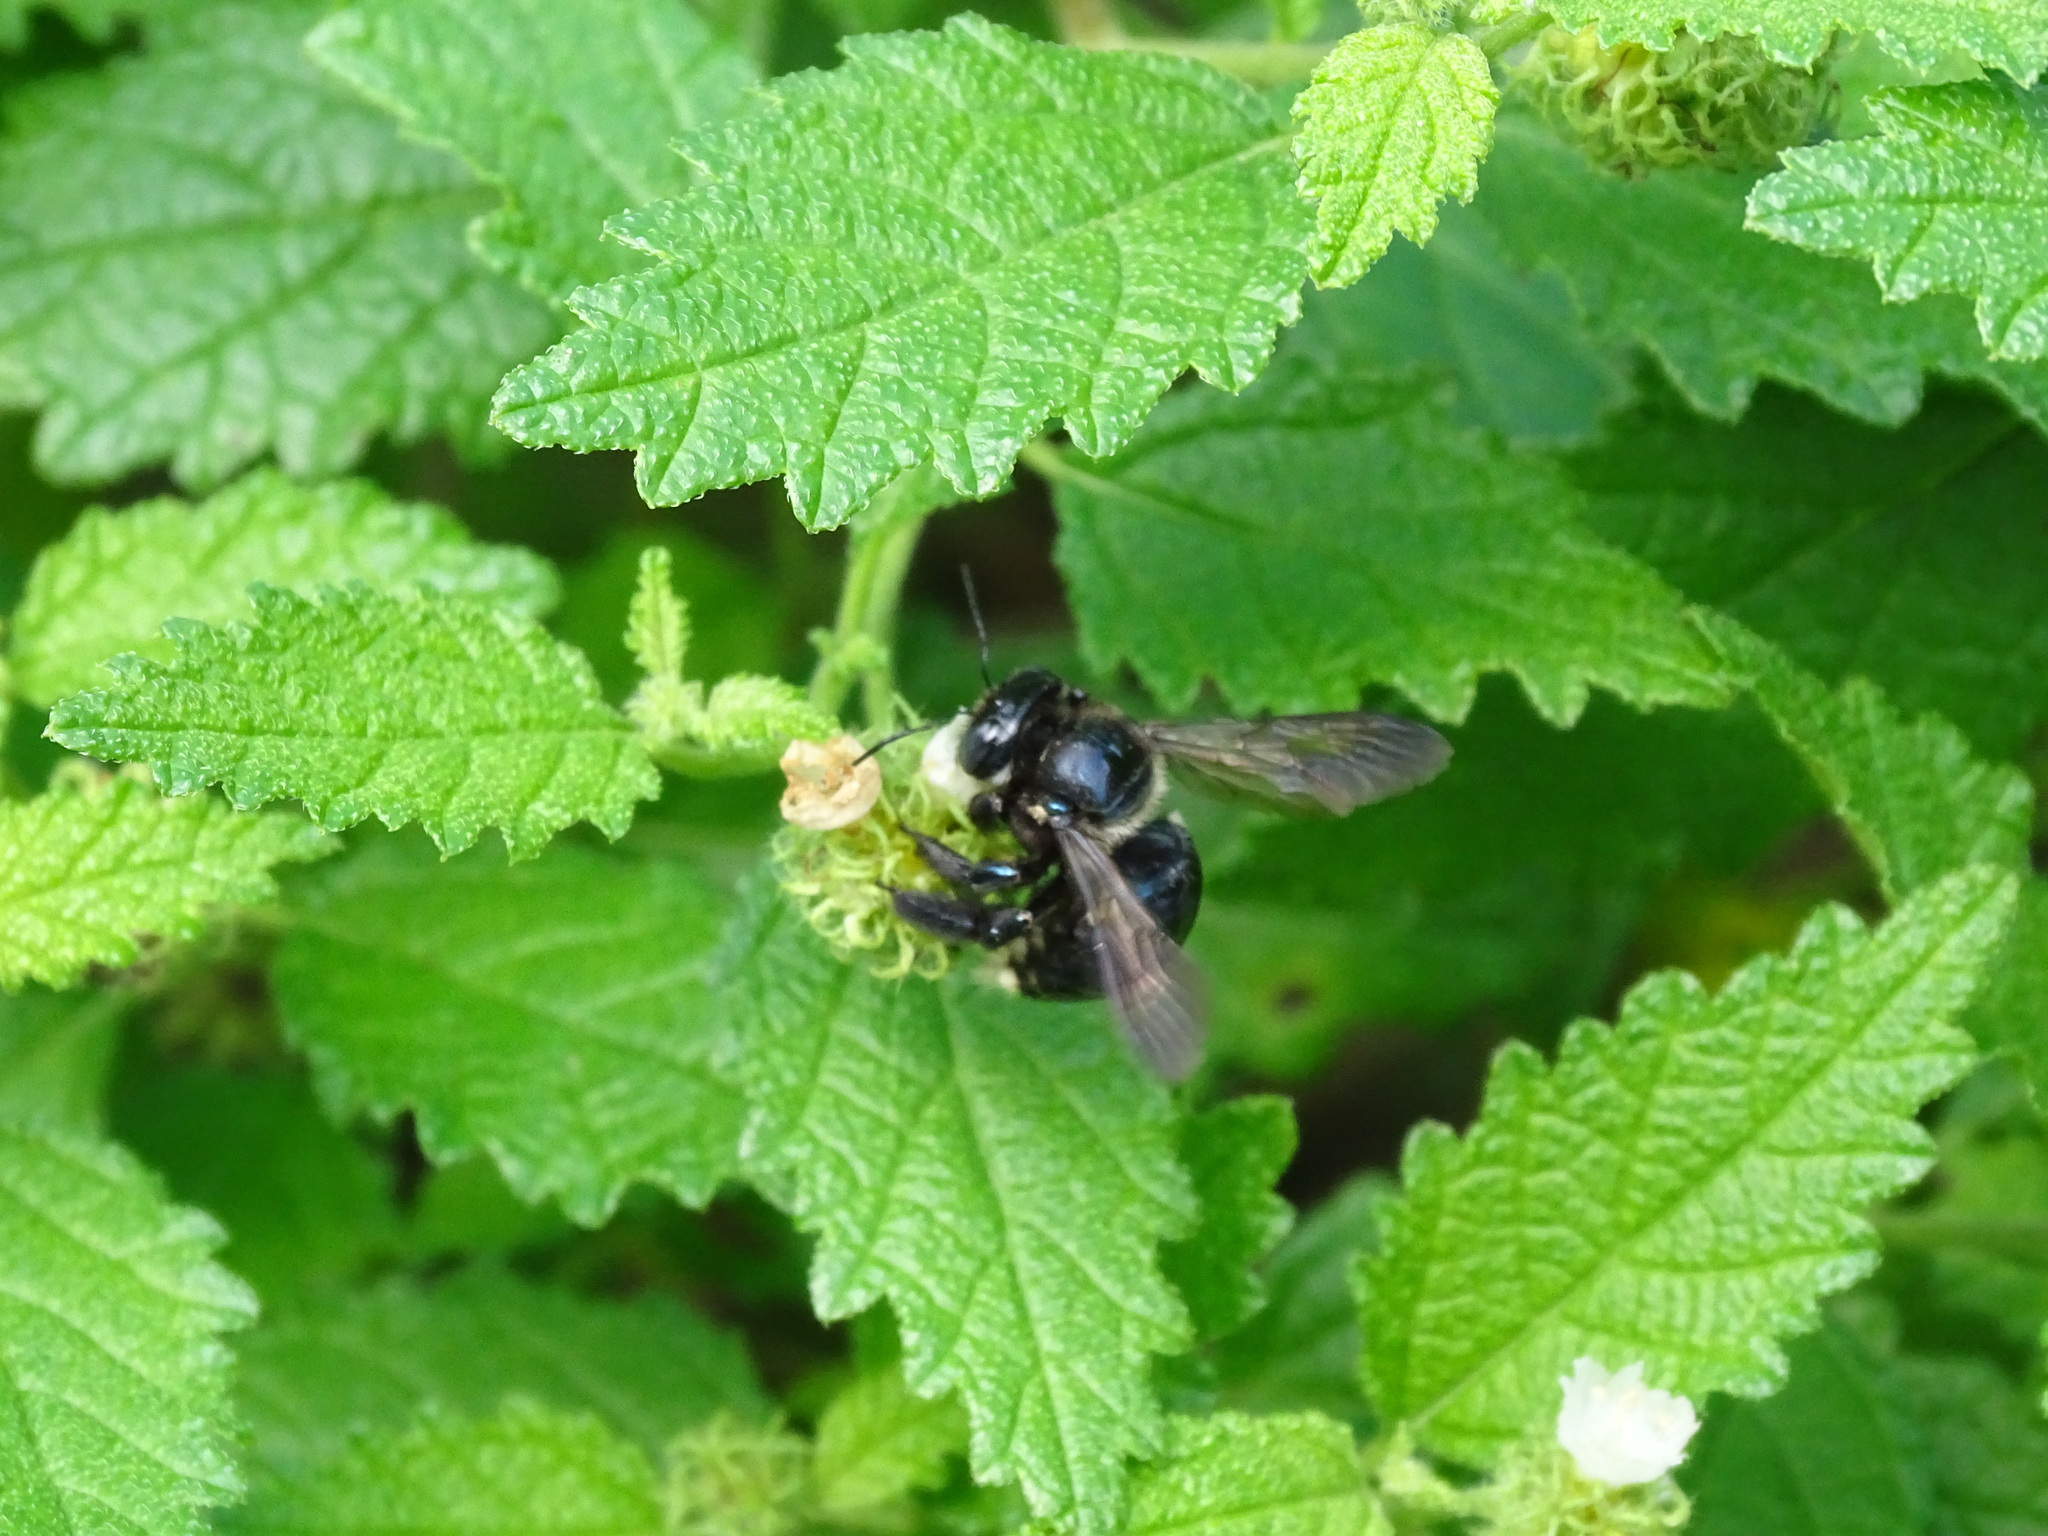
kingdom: Animalia
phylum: Arthropoda
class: Insecta
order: Hymenoptera
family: Apidae
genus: Xylocopa
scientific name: Xylocopa micans
